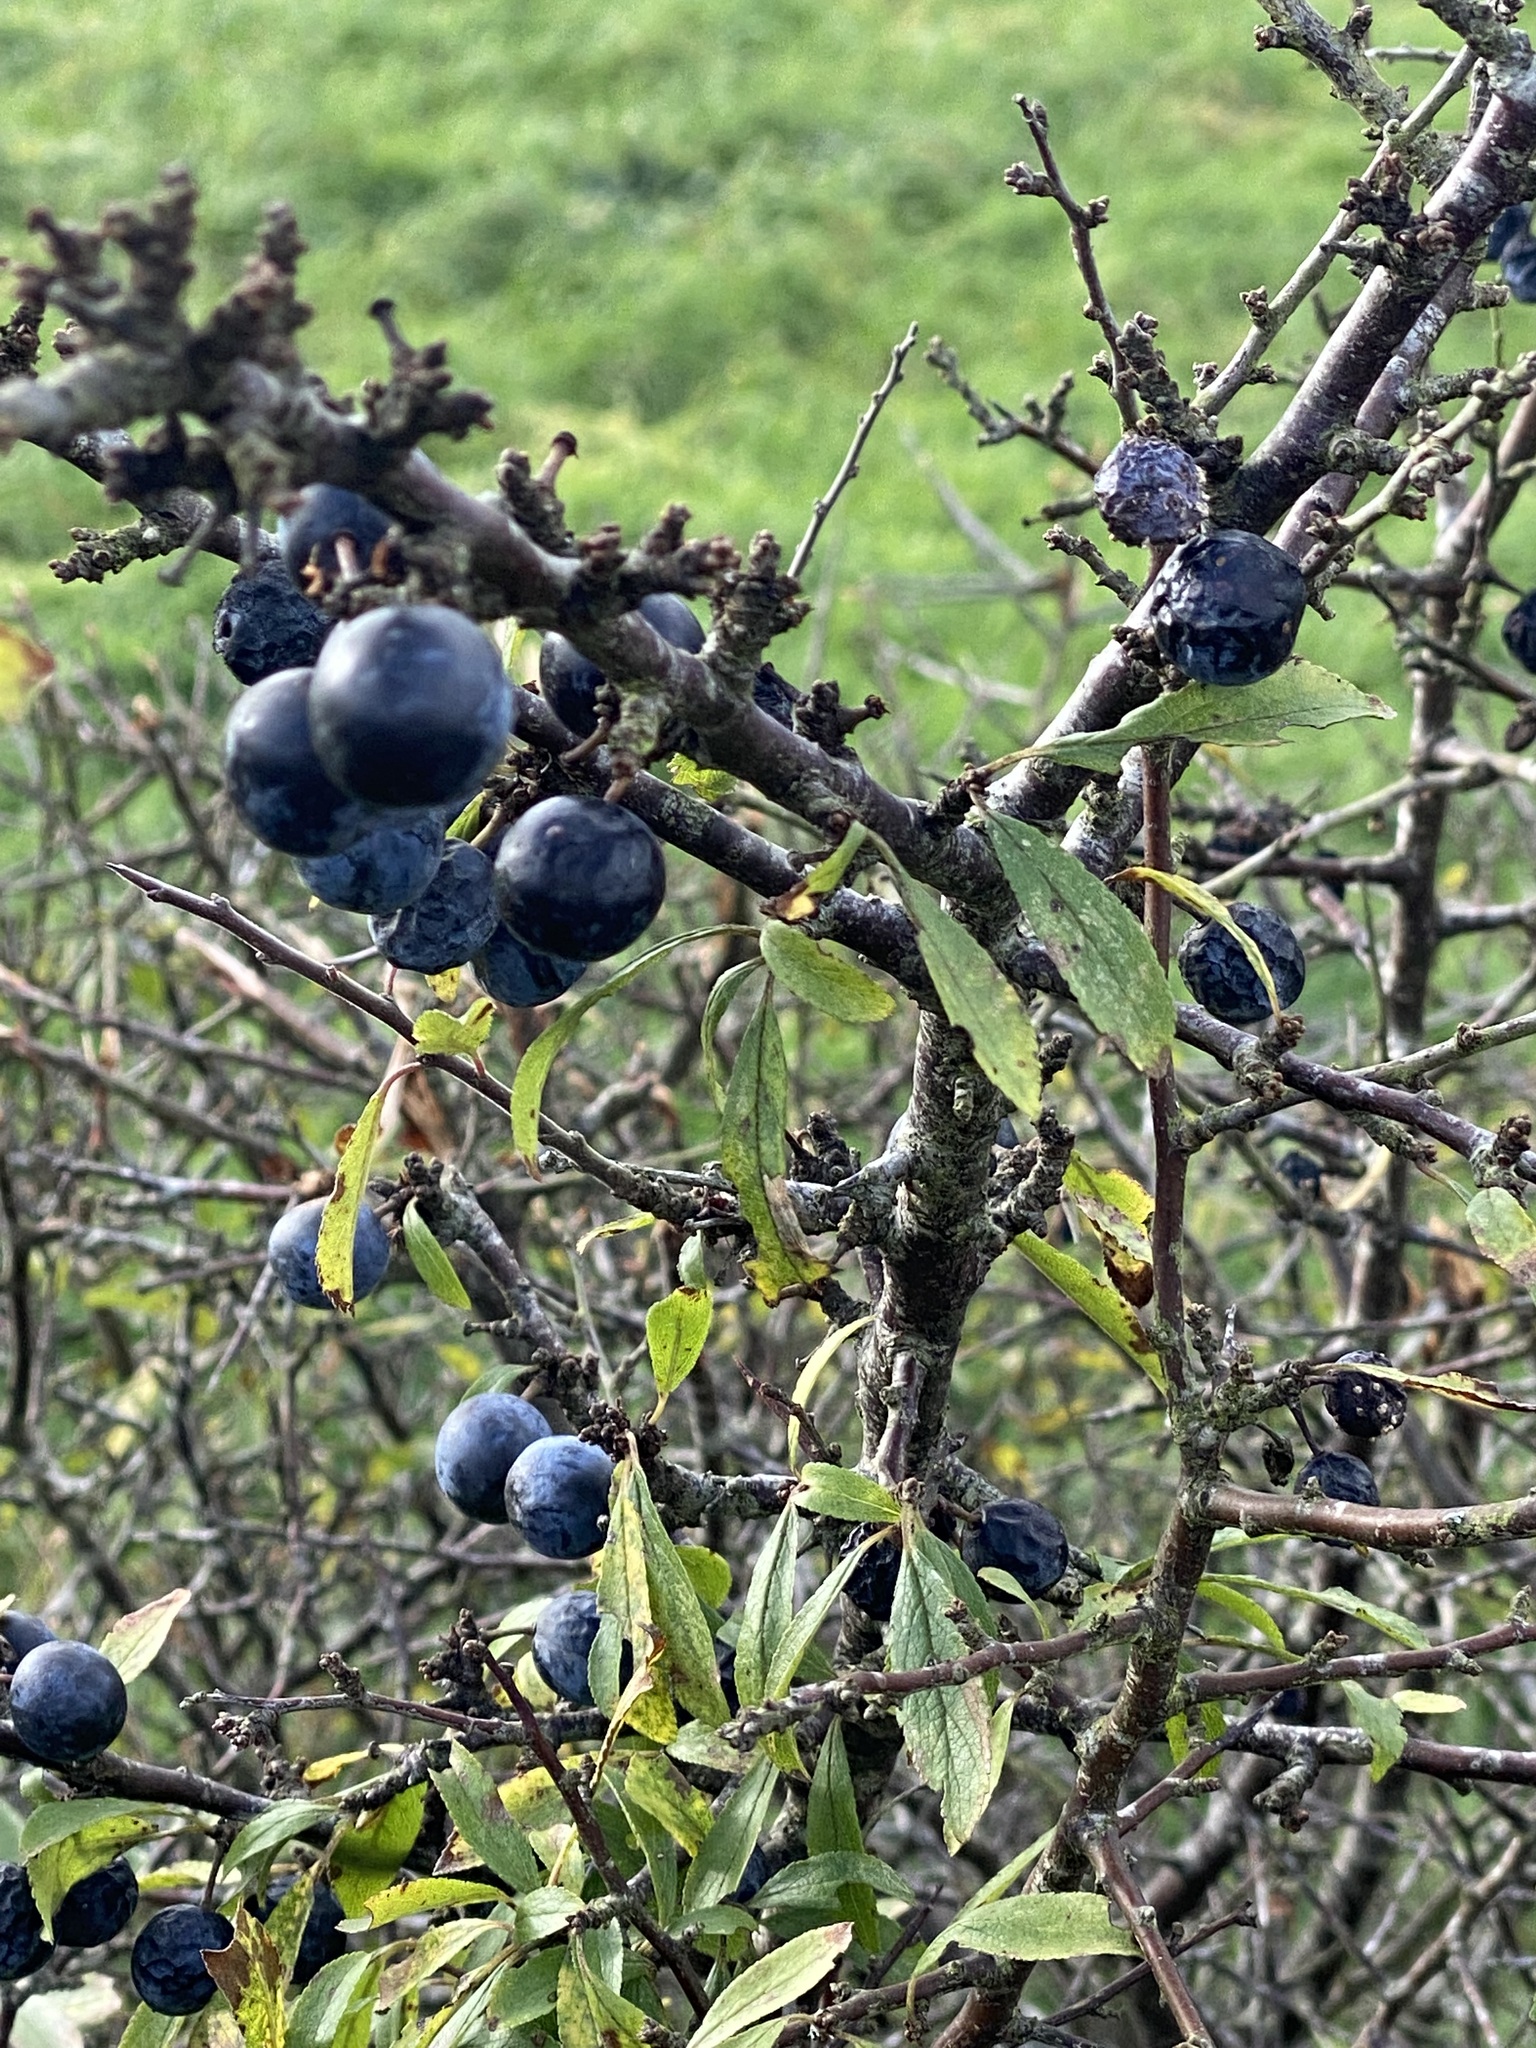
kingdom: Plantae
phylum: Tracheophyta
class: Magnoliopsida
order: Rosales
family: Rosaceae
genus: Prunus
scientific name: Prunus spinosa
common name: Blackthorn
